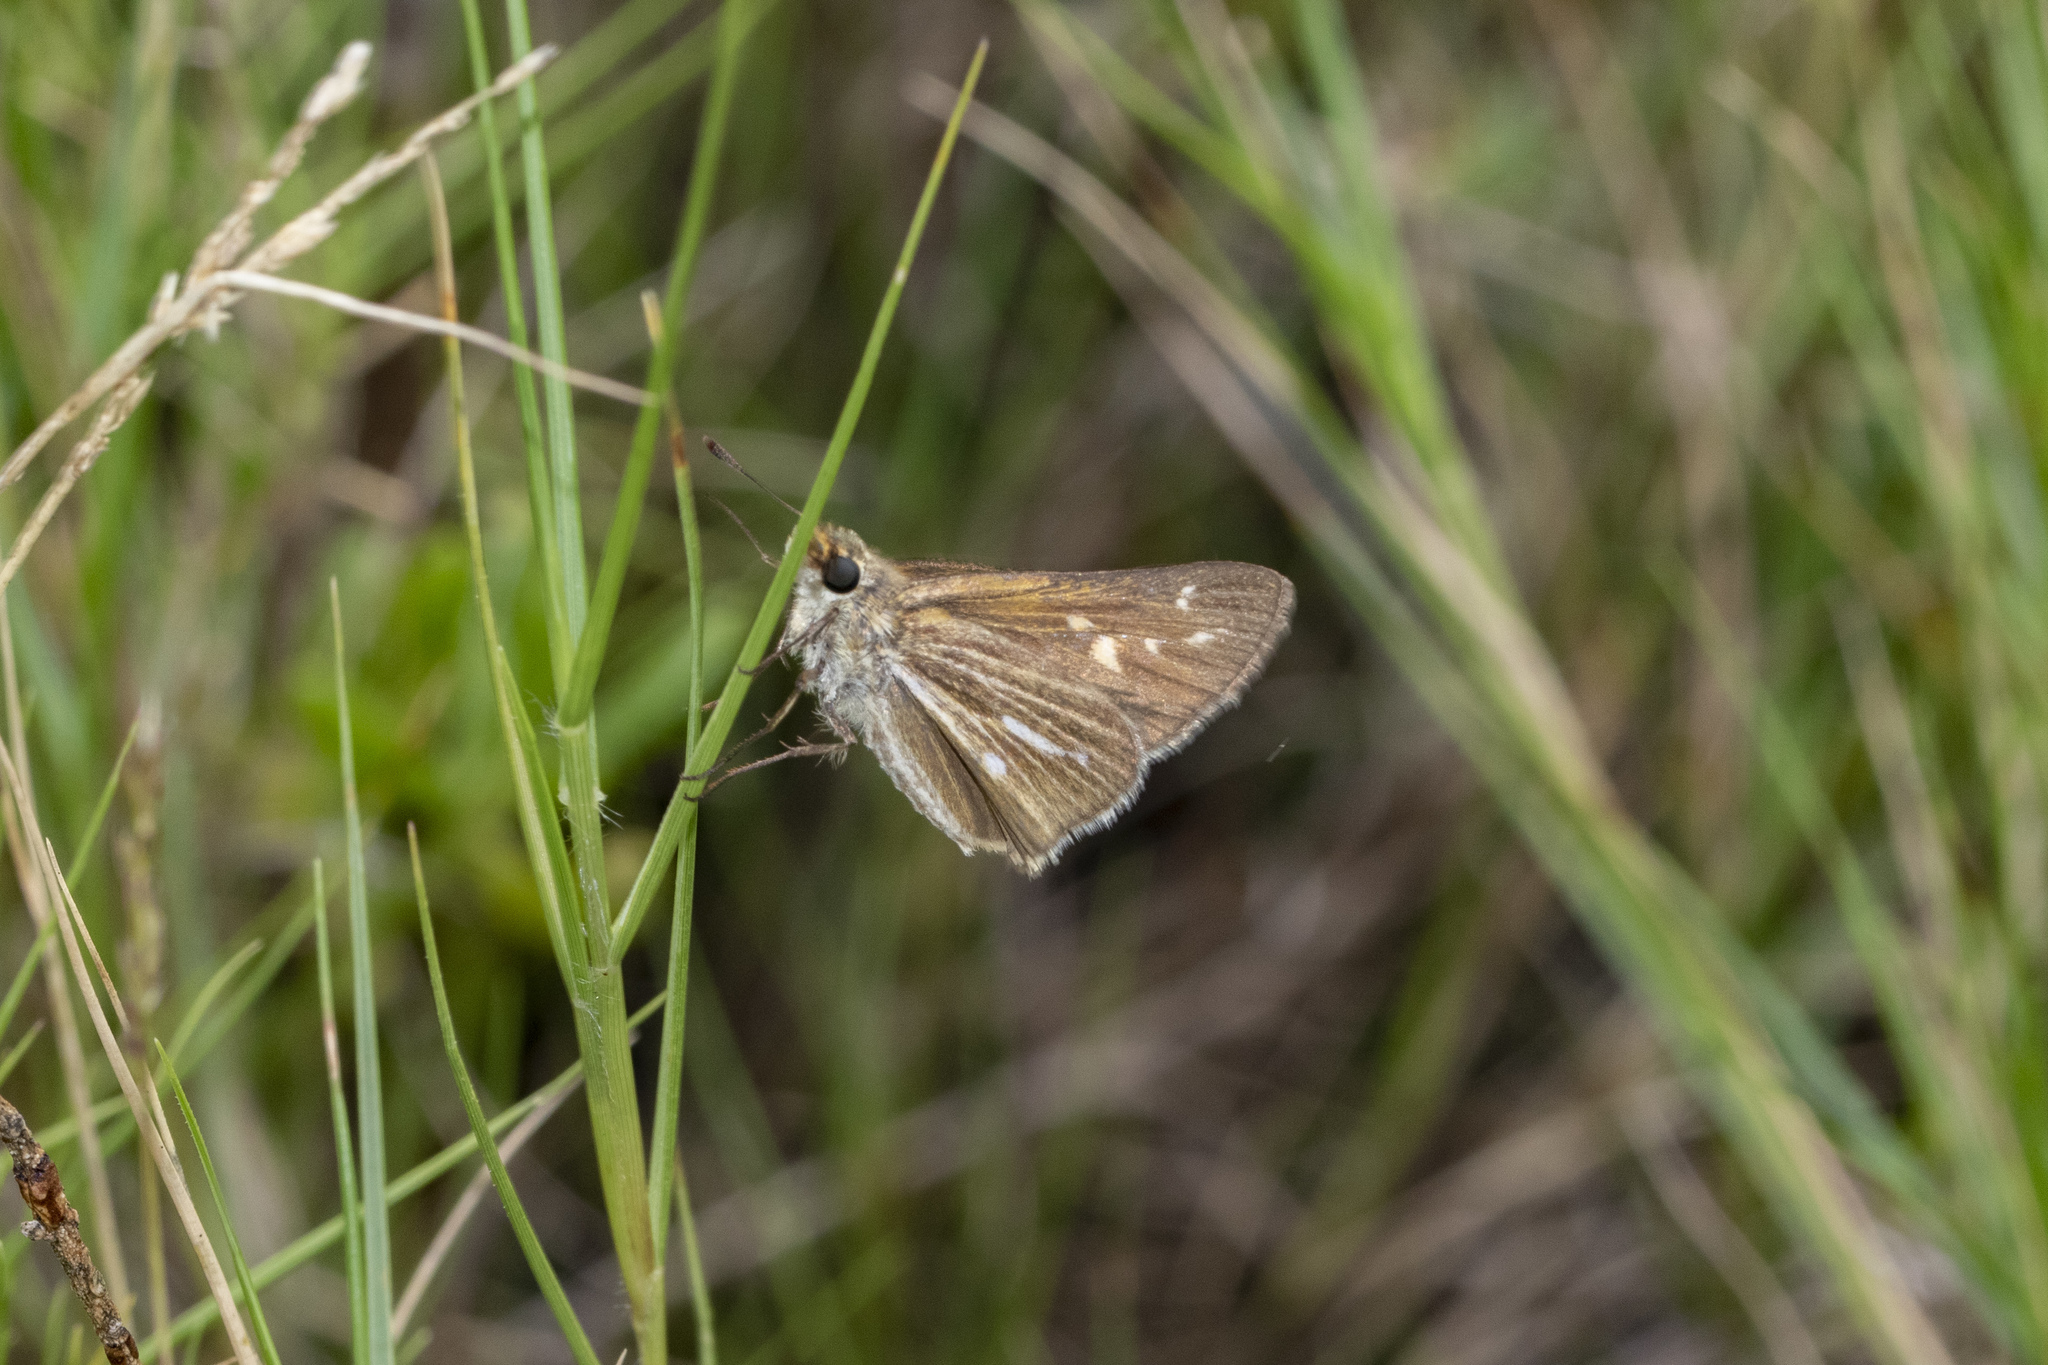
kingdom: Animalia
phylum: Arthropoda
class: Insecta
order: Lepidoptera
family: Hesperiidae
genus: Panoquina
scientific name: Panoquina panoquin
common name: Salt marsh skipper
